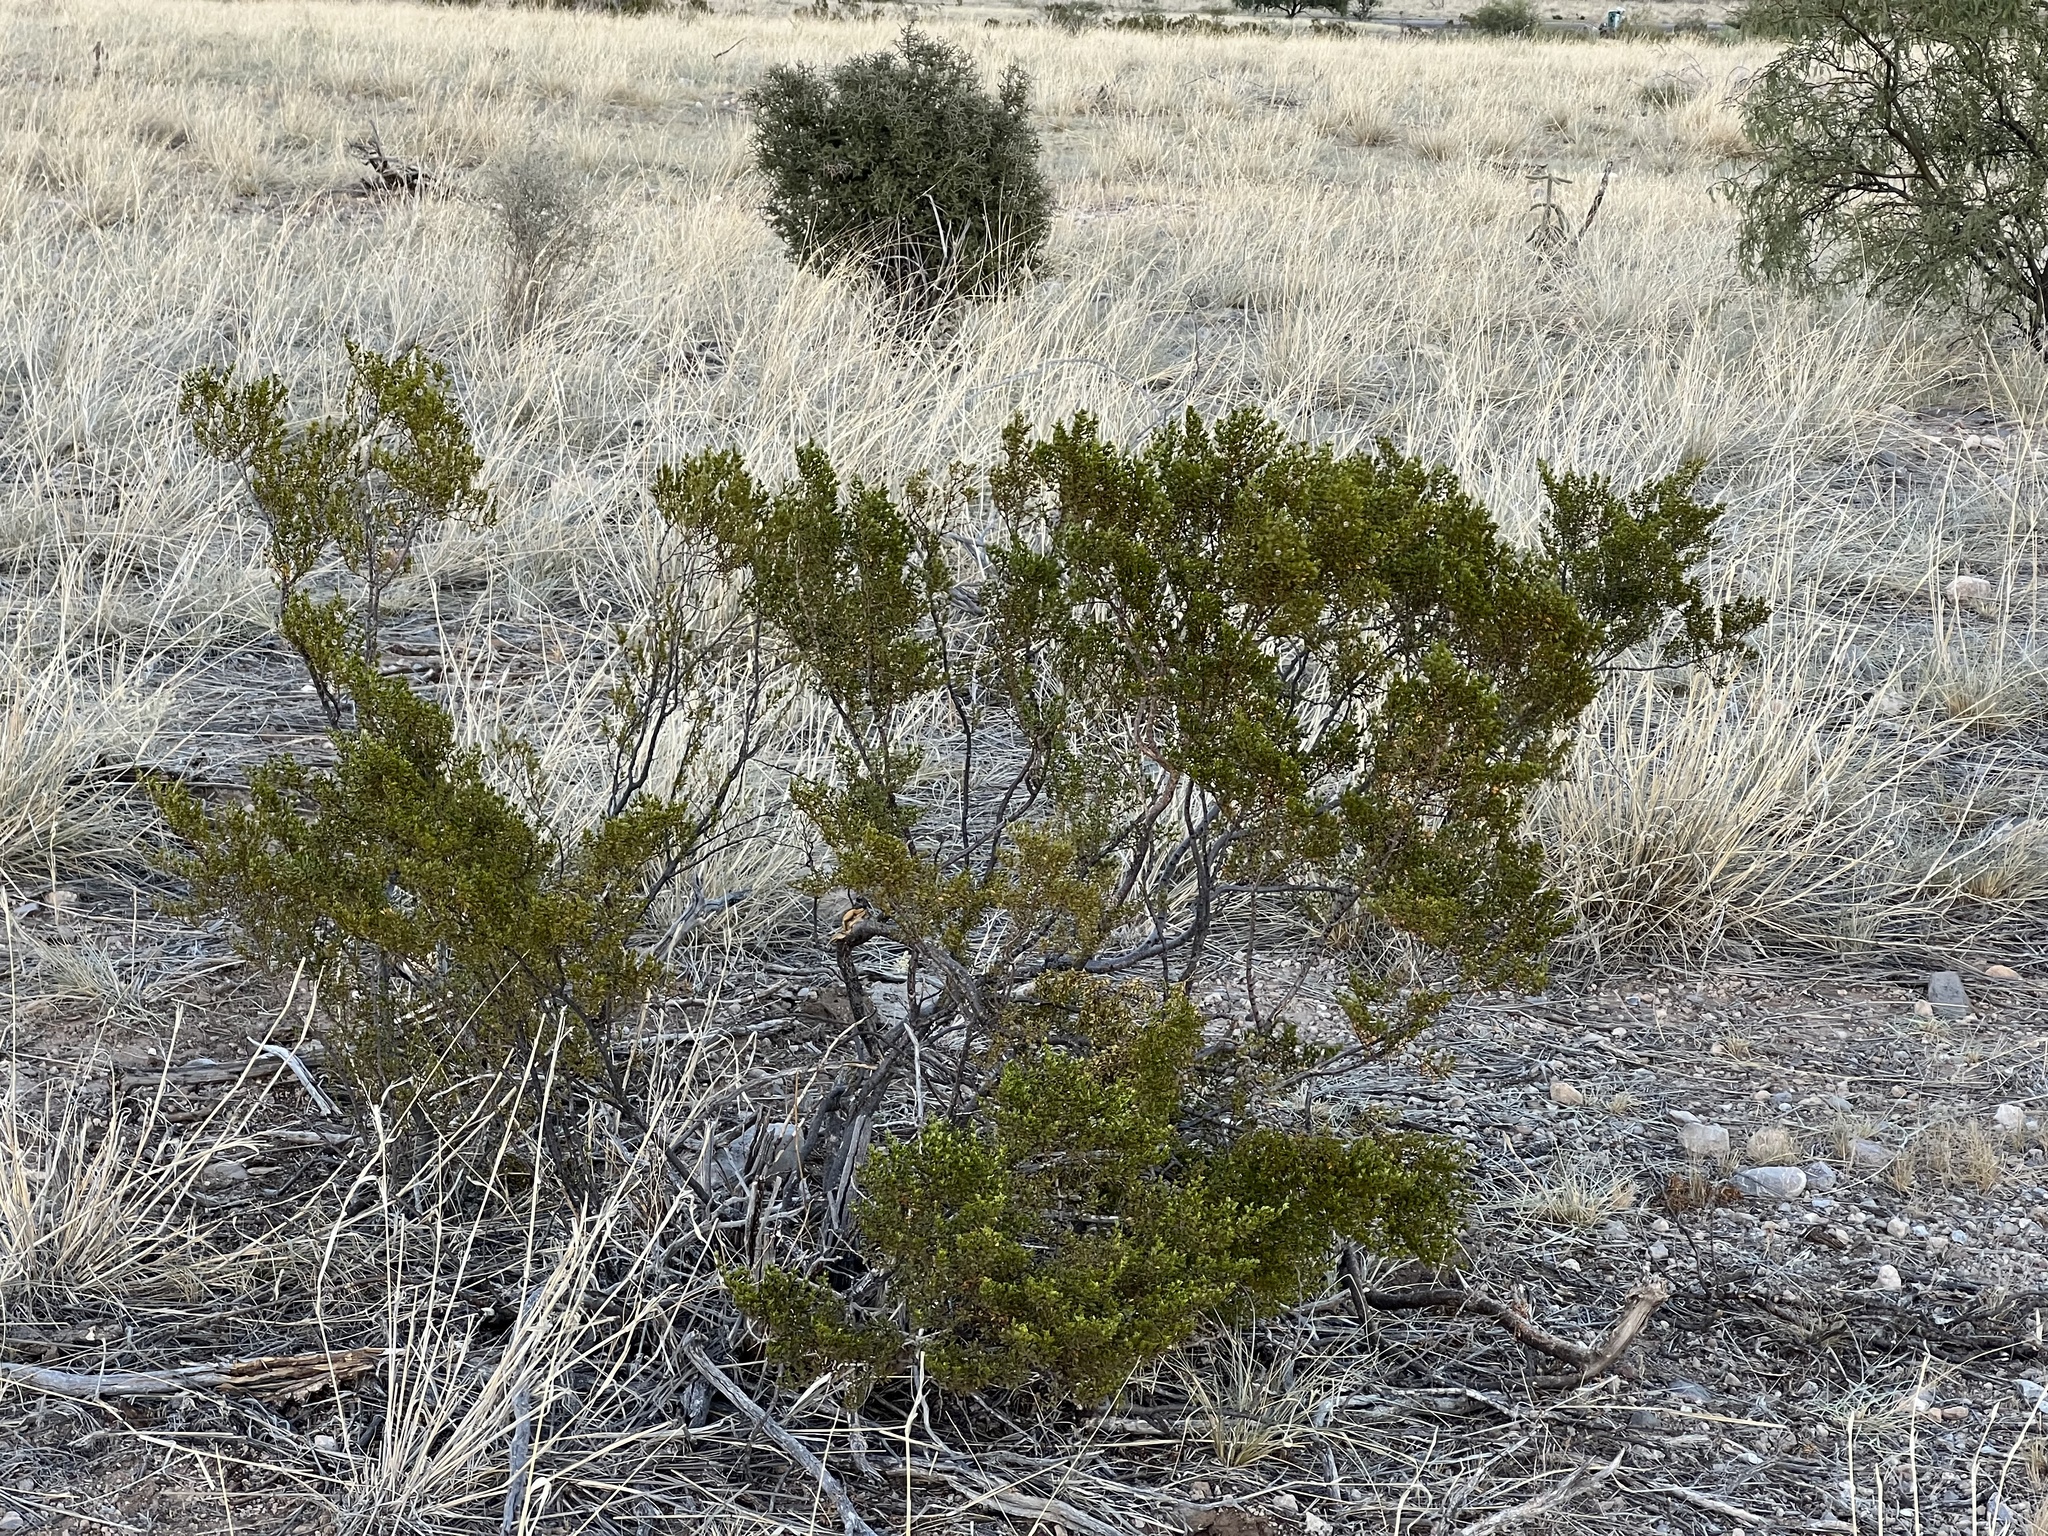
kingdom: Plantae
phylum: Tracheophyta
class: Magnoliopsida
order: Zygophyllales
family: Zygophyllaceae
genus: Larrea
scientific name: Larrea tridentata
